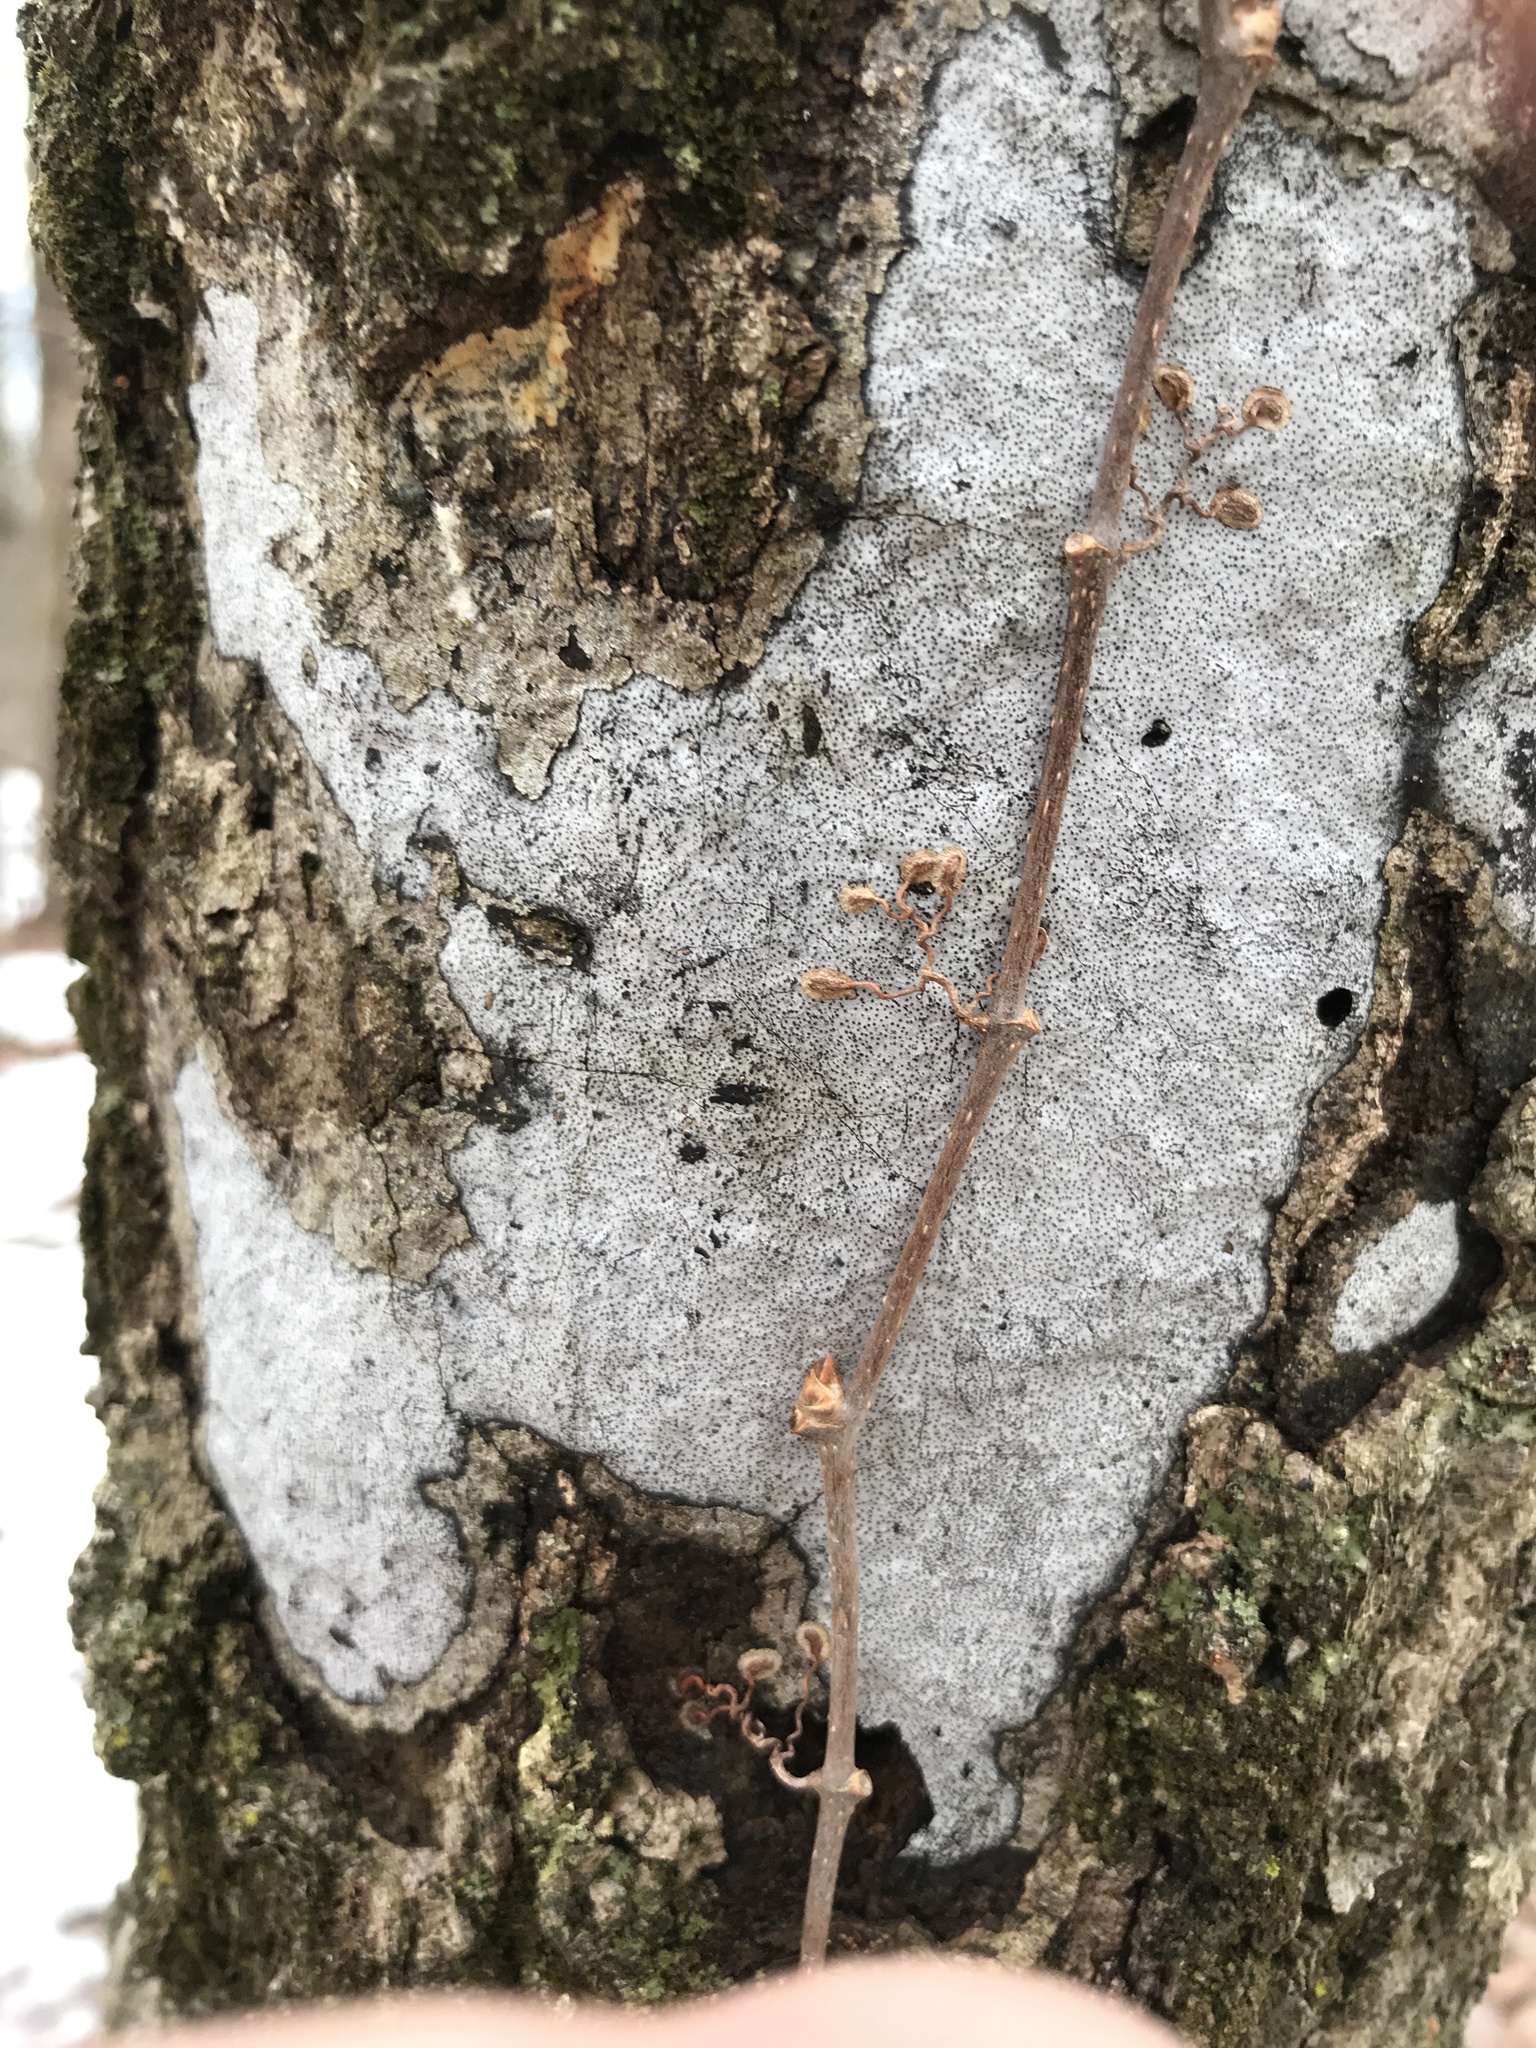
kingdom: Fungi
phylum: Ascomycota
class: Sordariomycetes
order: Xylariales
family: Graphostromataceae
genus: Biscogniauxia
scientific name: Biscogniauxia atropunctata
